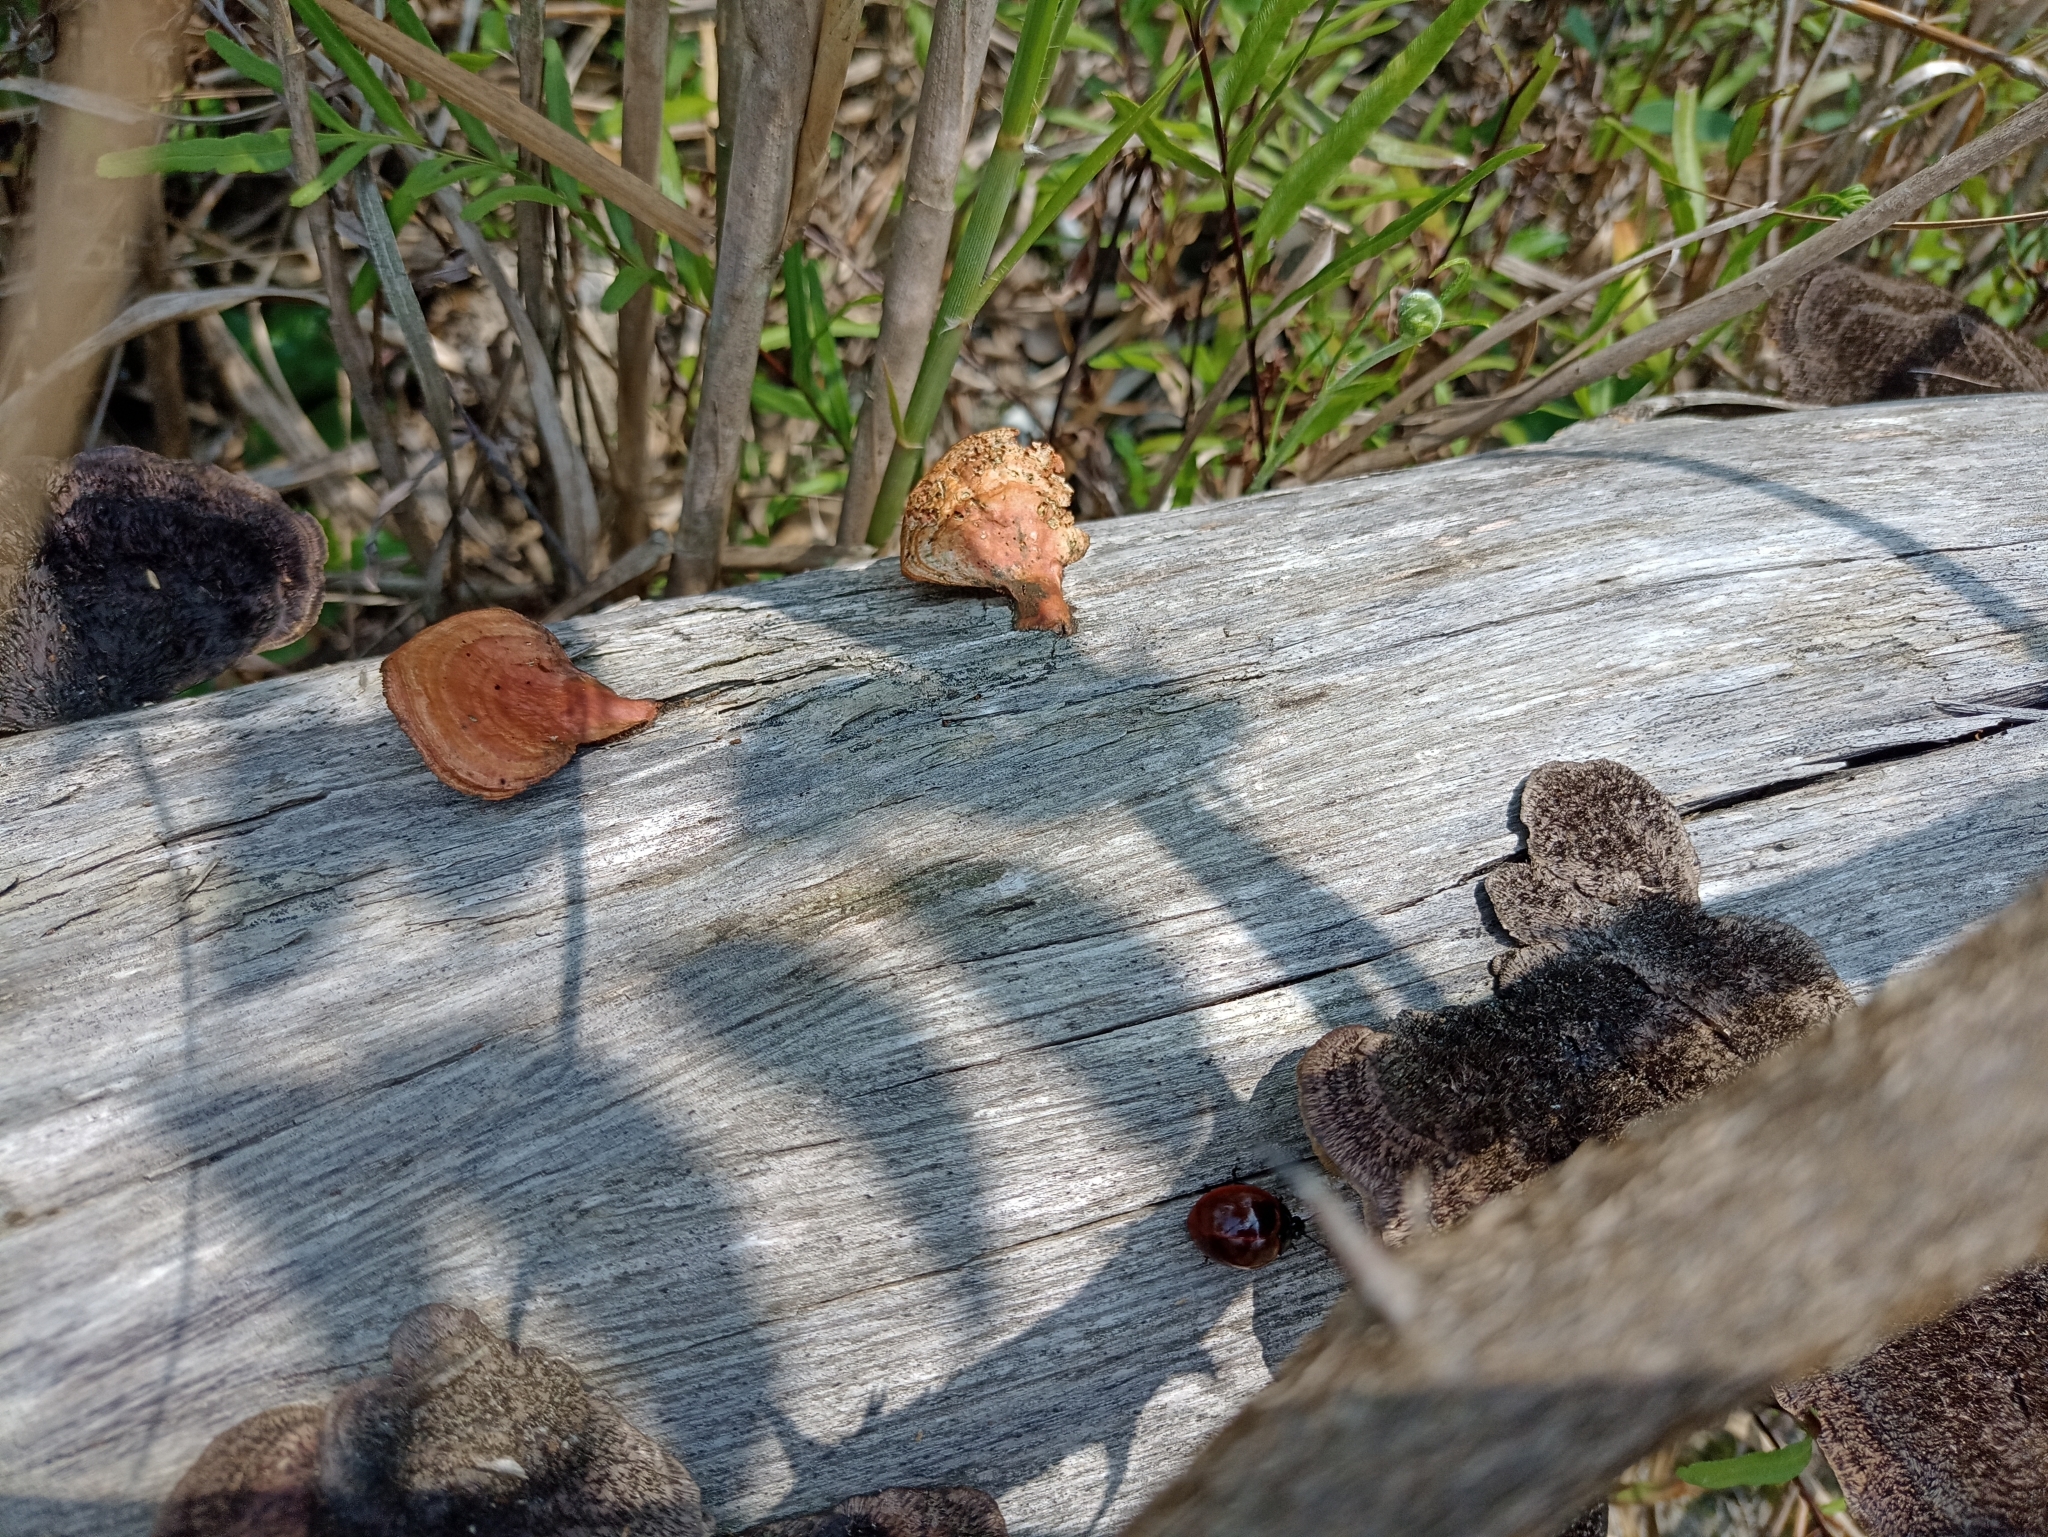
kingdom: Fungi
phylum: Basidiomycota
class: Agaricomycetes
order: Polyporales
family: Polyporaceae
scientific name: Polyporaceae
